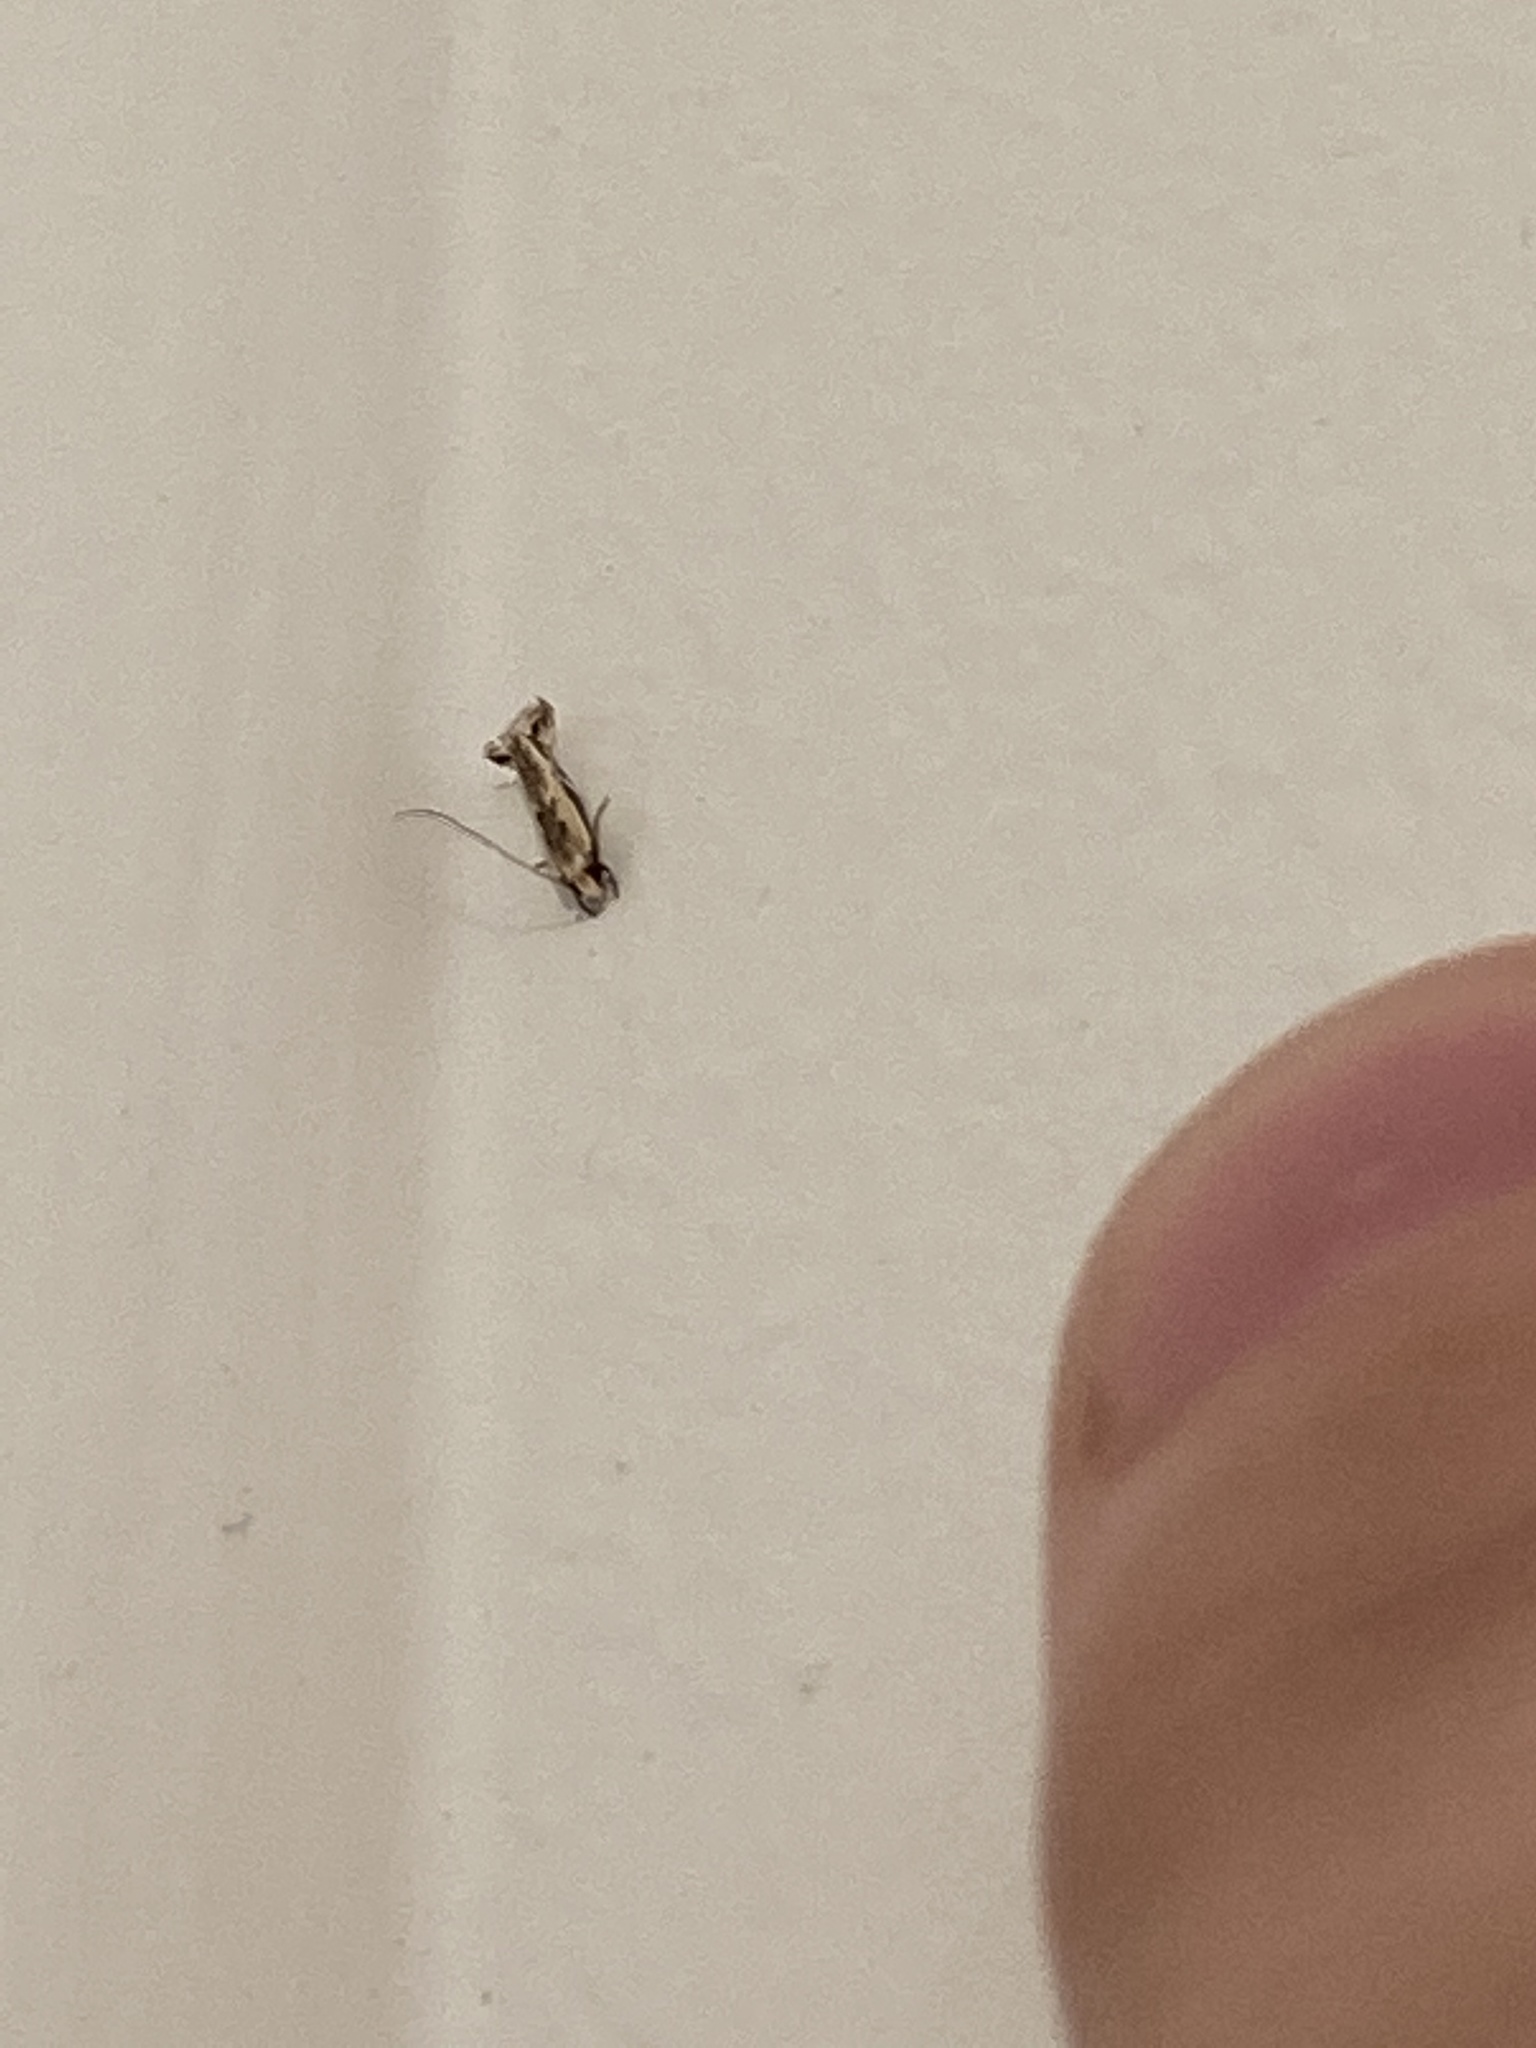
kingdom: Animalia
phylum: Arthropoda
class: Insecta
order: Lepidoptera
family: Tineidae
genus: Erechthias
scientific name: Erechthias terminella
